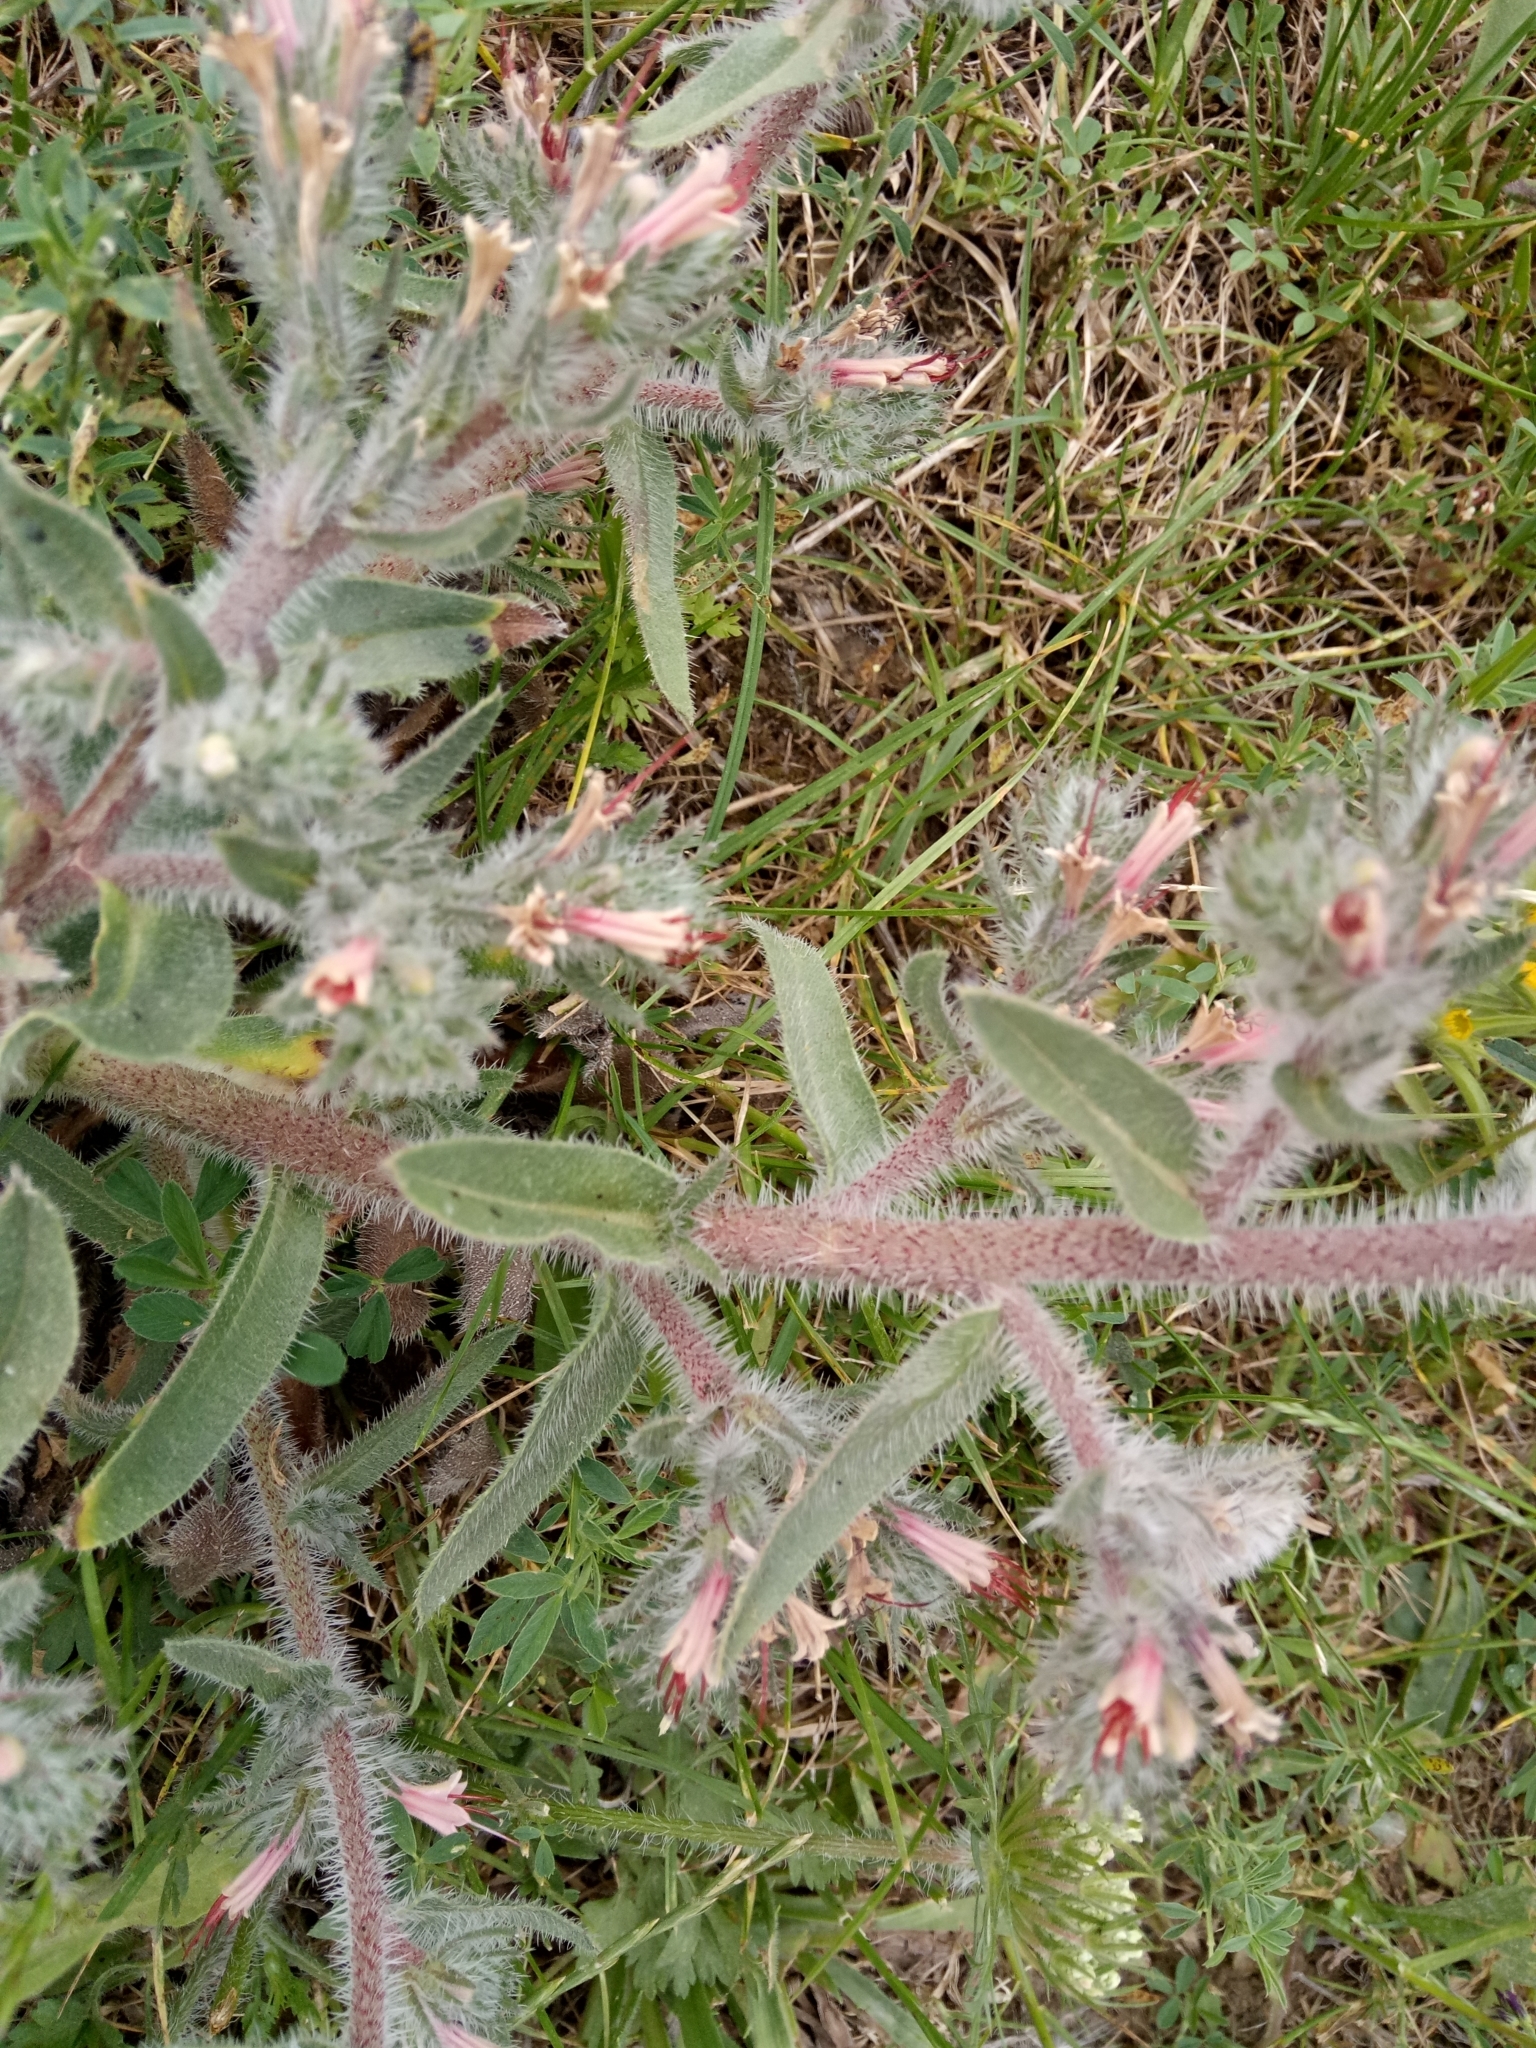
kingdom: Plantae
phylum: Tracheophyta
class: Magnoliopsida
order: Boraginales
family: Boraginaceae
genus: Echium
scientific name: Echium asperrimum
